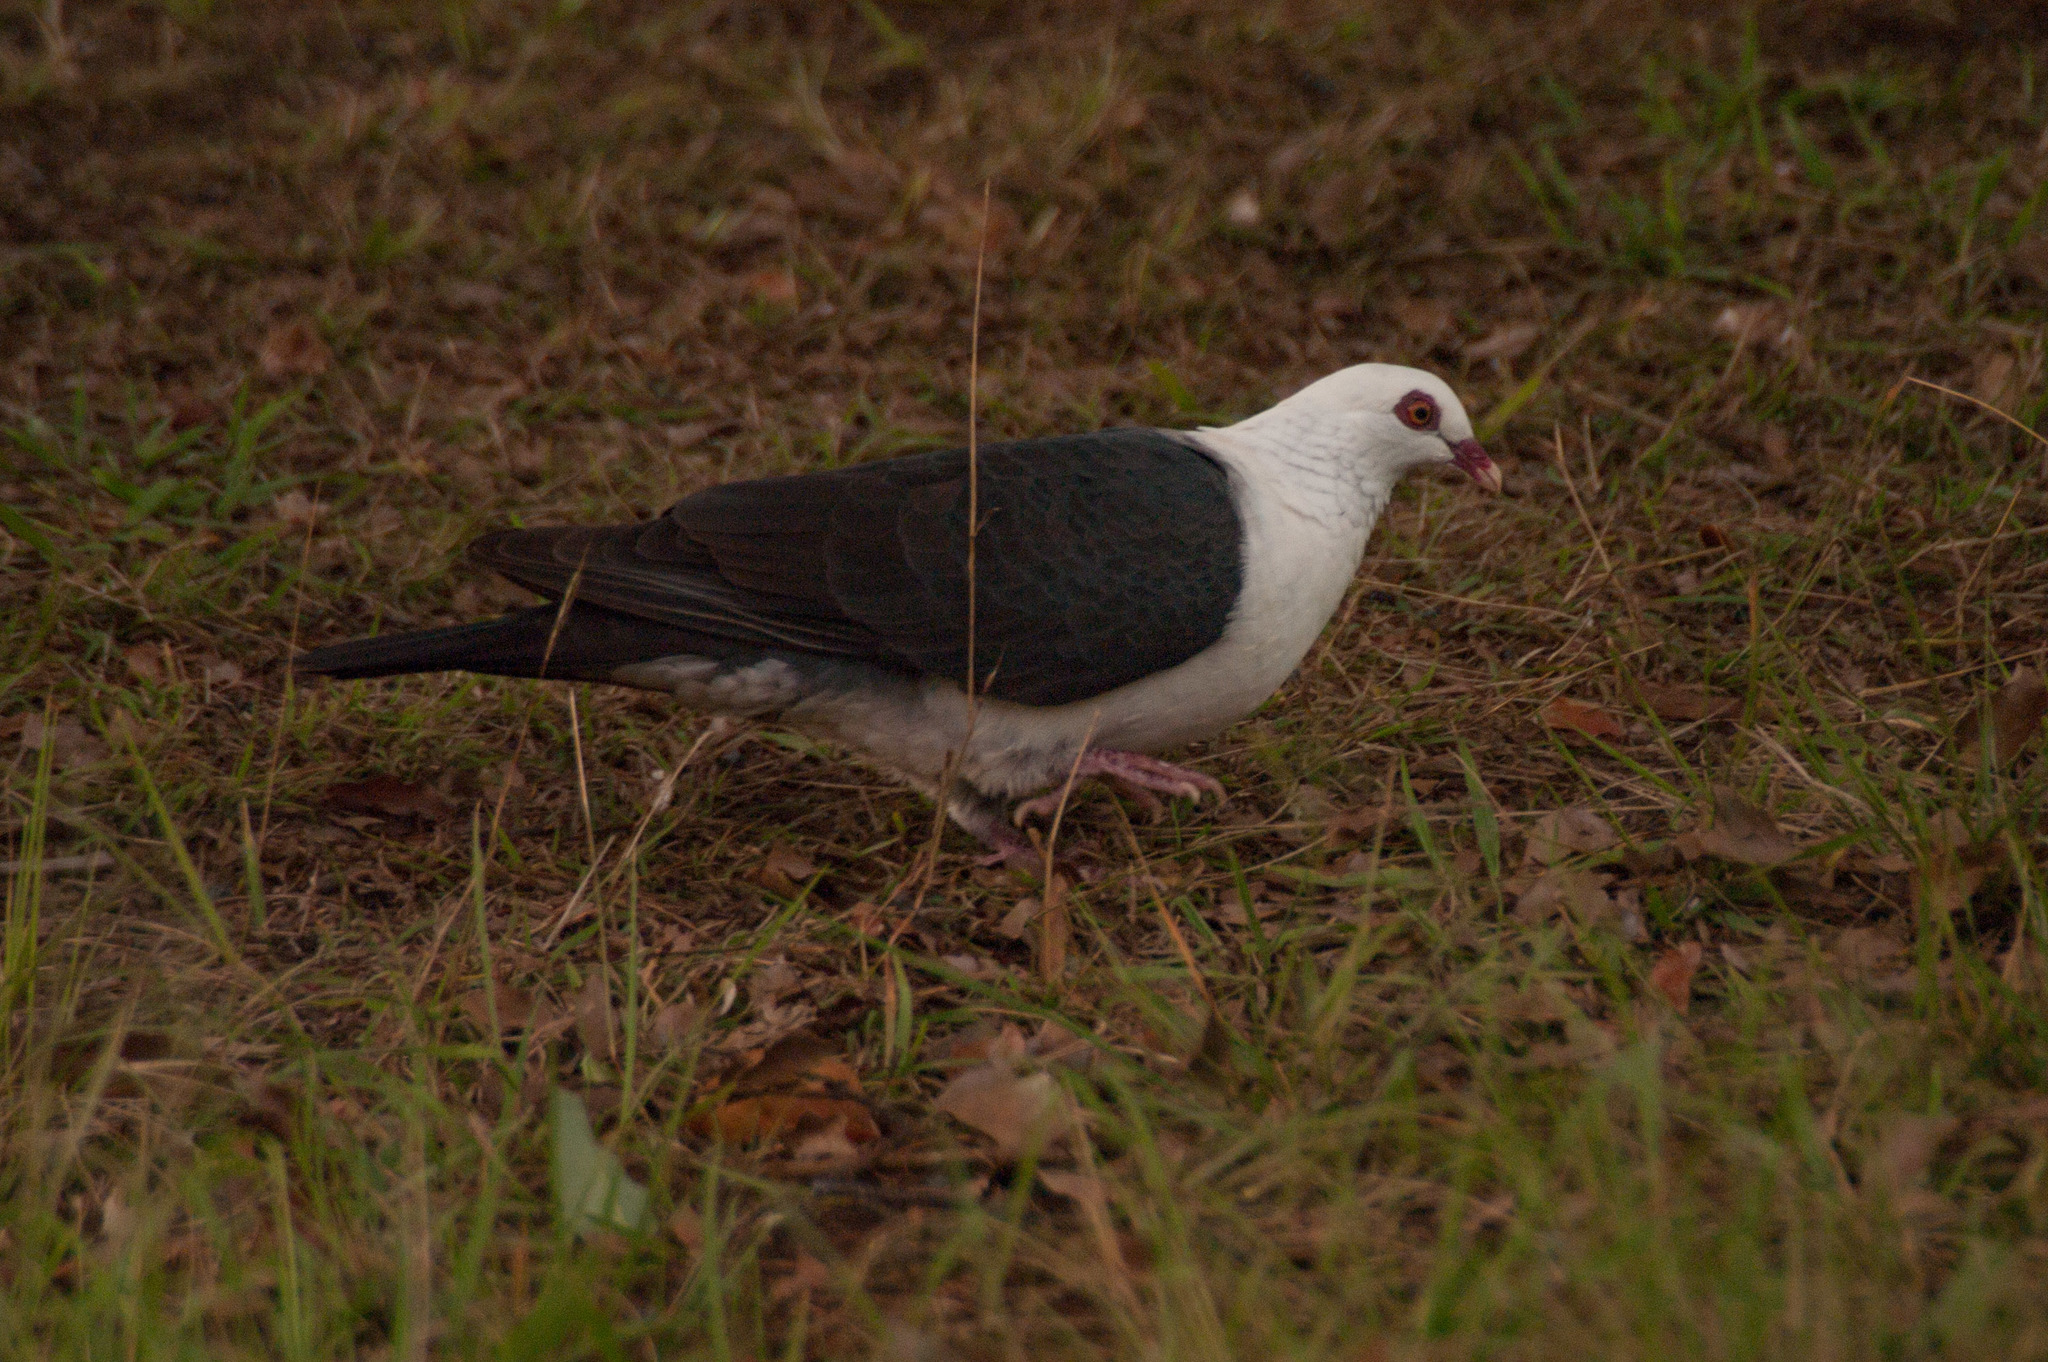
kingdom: Animalia
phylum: Chordata
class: Aves
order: Columbiformes
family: Columbidae
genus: Columba
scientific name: Columba leucomela
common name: White-headed pigeon
